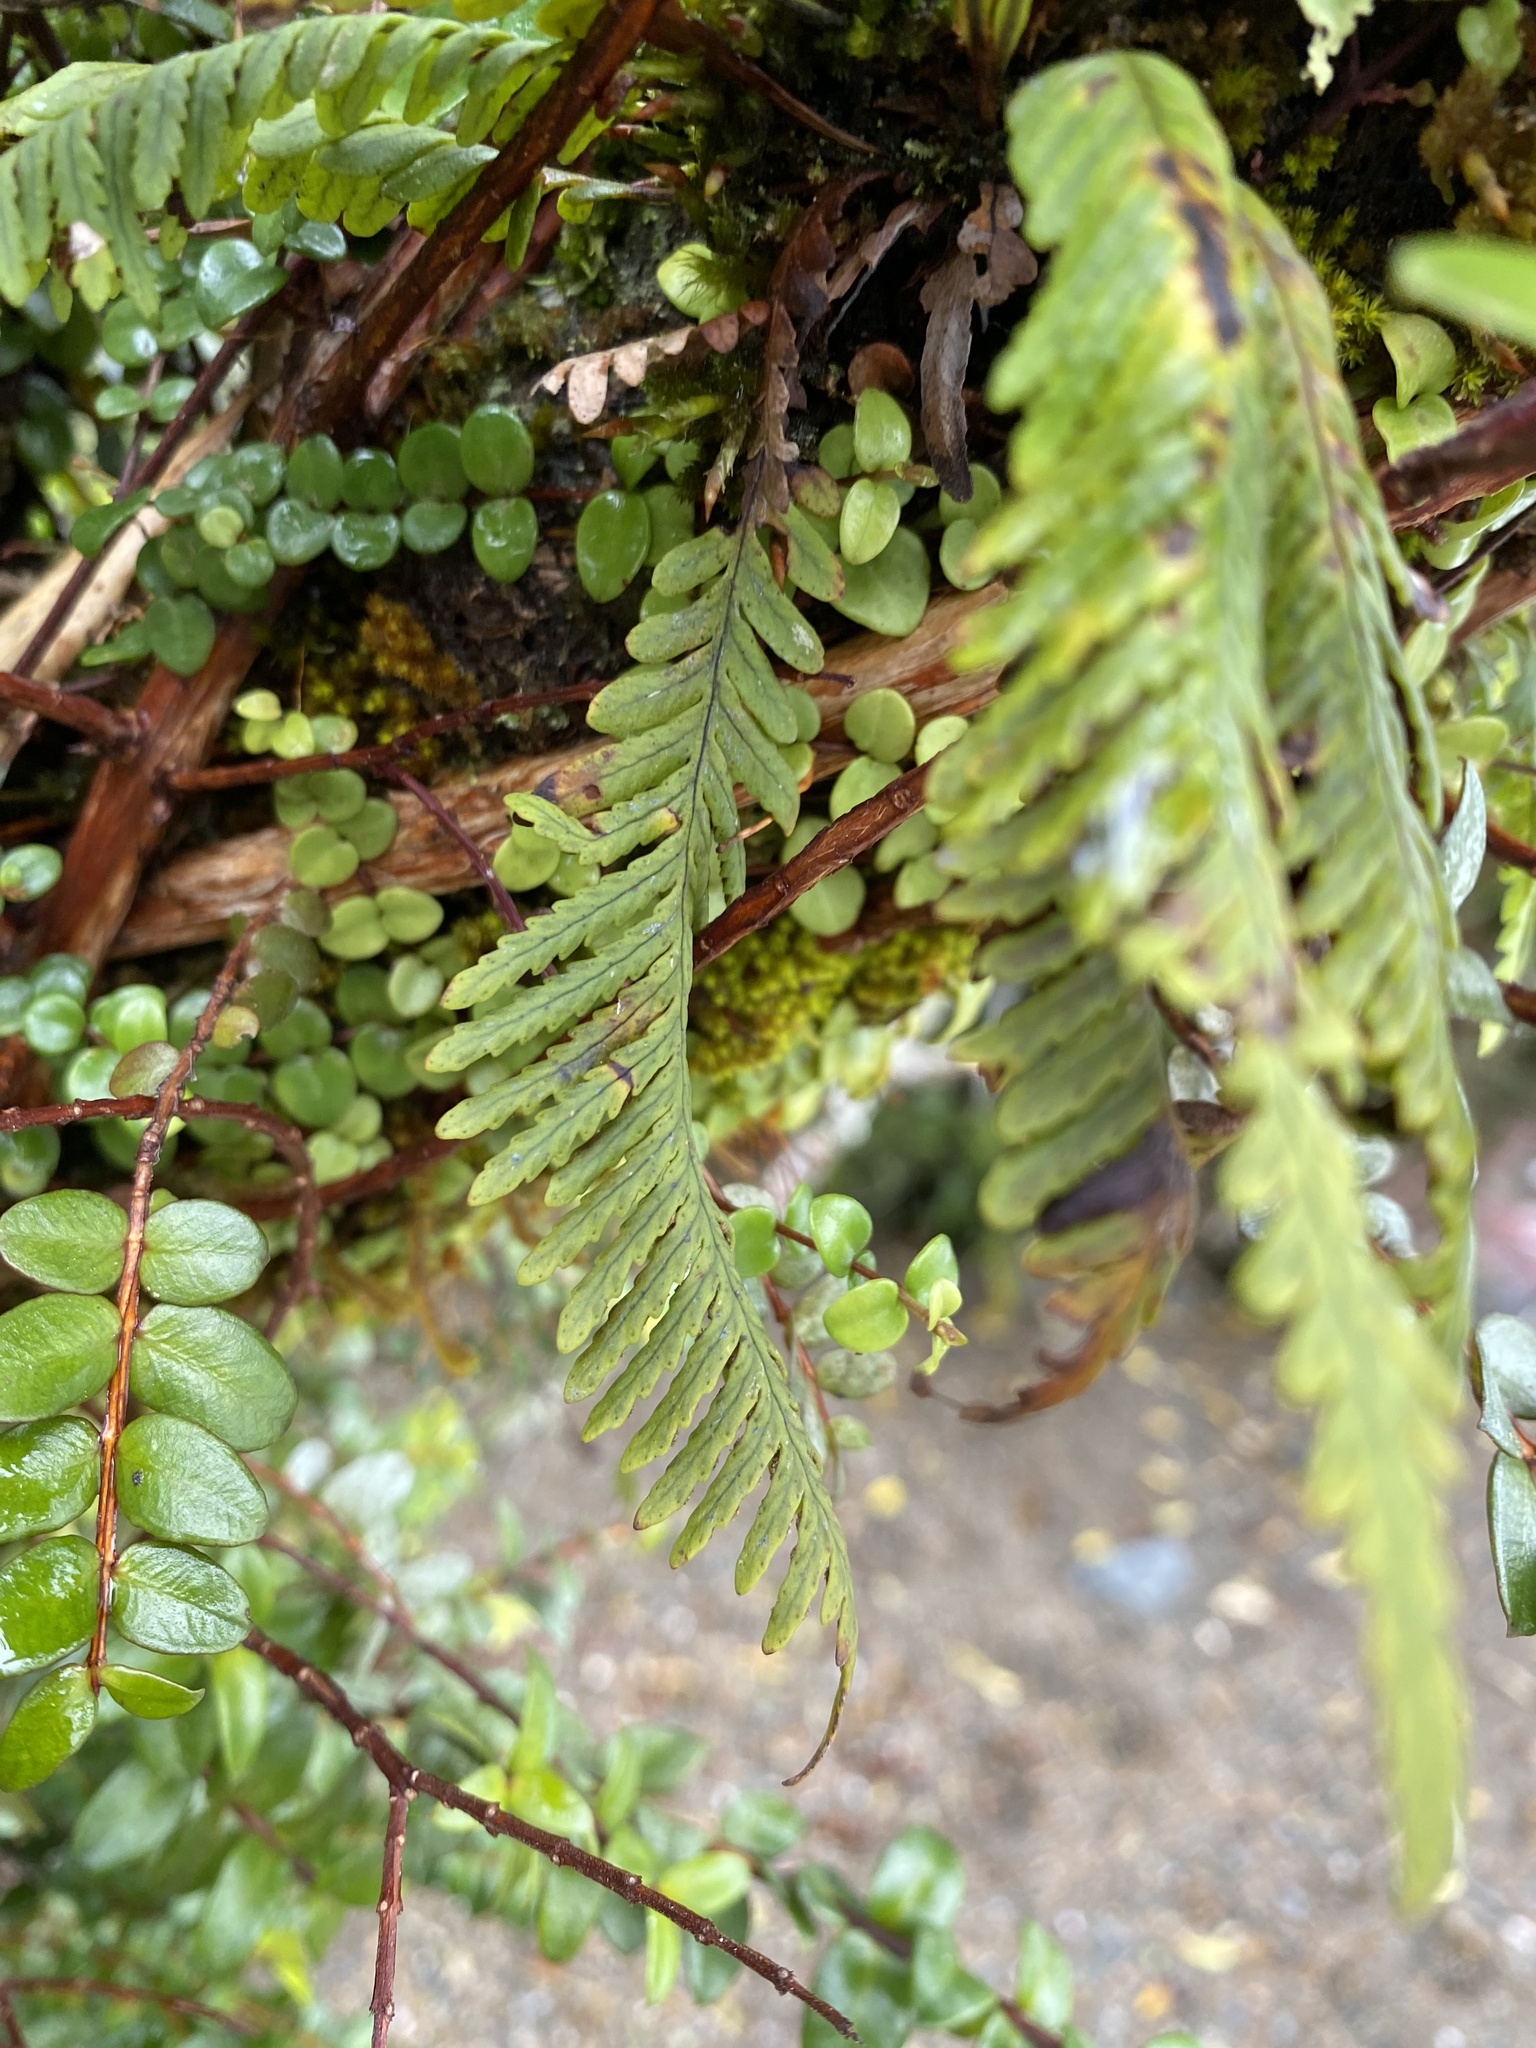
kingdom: Plantae
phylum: Tracheophyta
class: Polypodiopsida
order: Polypodiales
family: Polypodiaceae
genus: Notogrammitis
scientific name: Notogrammitis heterophylla
